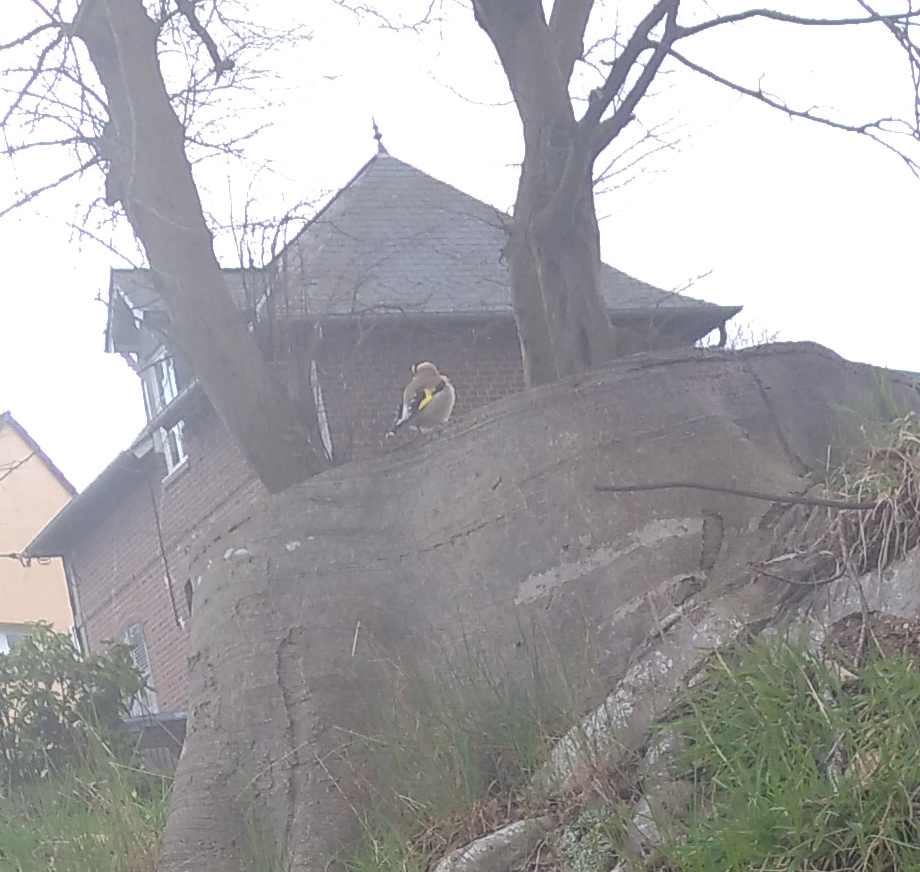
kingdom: Animalia
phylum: Chordata
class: Aves
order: Passeriformes
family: Fringillidae
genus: Carduelis
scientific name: Carduelis carduelis
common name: European goldfinch
